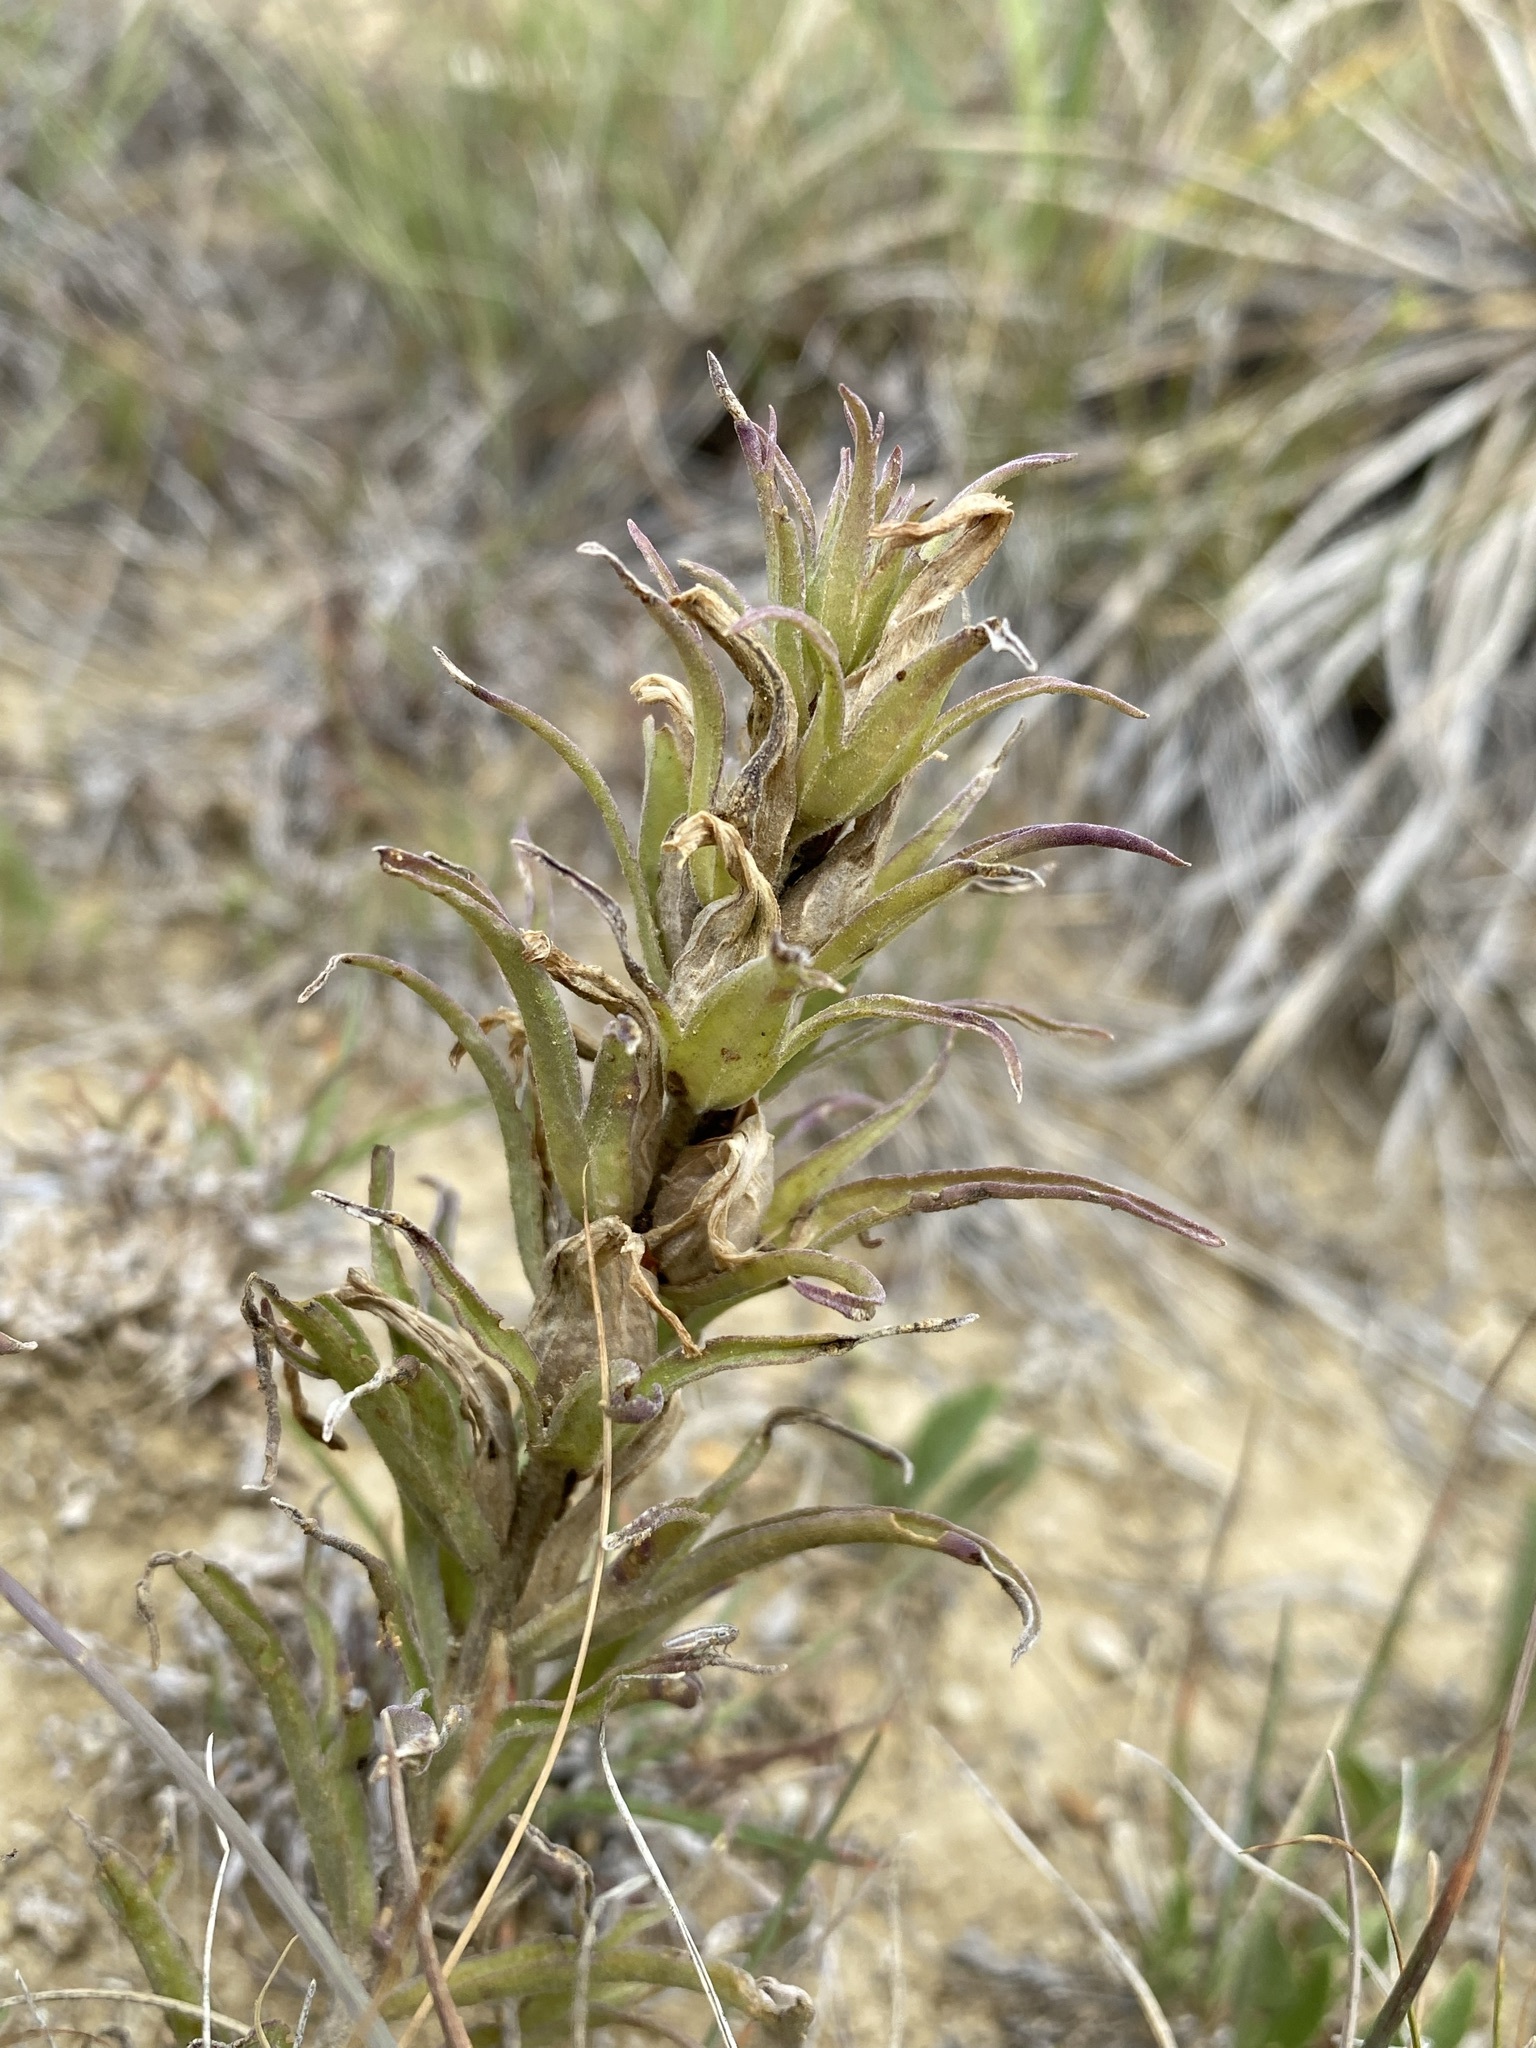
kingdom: Plantae
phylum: Tracheophyta
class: Magnoliopsida
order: Lamiales
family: Orobanchaceae
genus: Castilleja
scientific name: Castilleja sessiliflora
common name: Downy paintbrush
